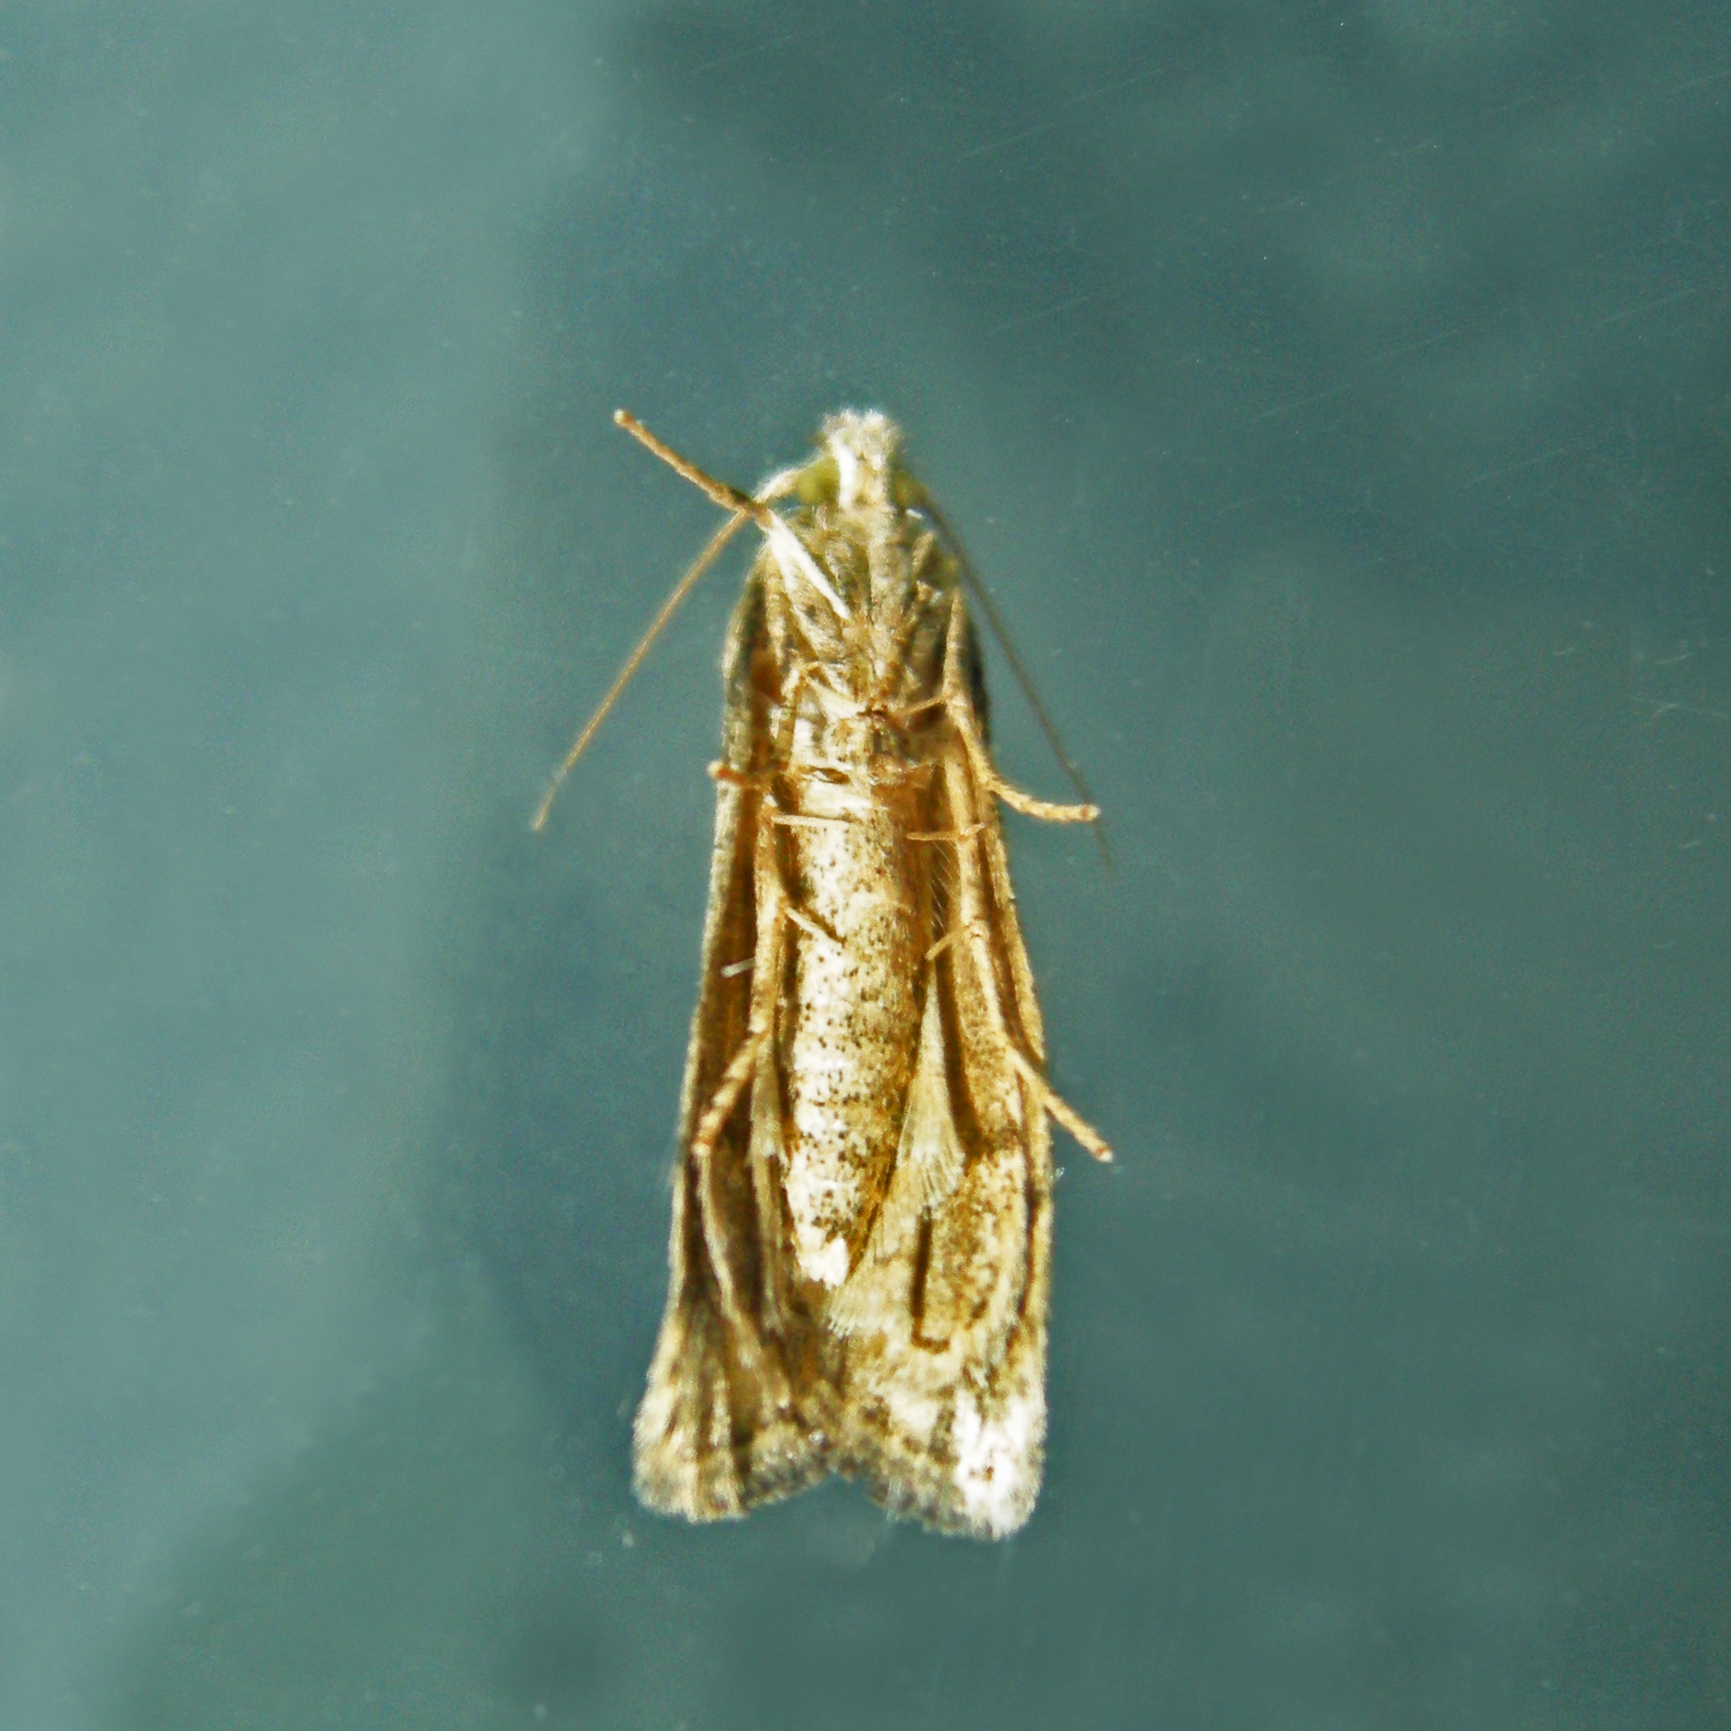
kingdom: Animalia
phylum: Arthropoda
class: Insecta
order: Lepidoptera
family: Pyralidae
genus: Aphomia
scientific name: Aphomia sociella
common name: Bee moth
